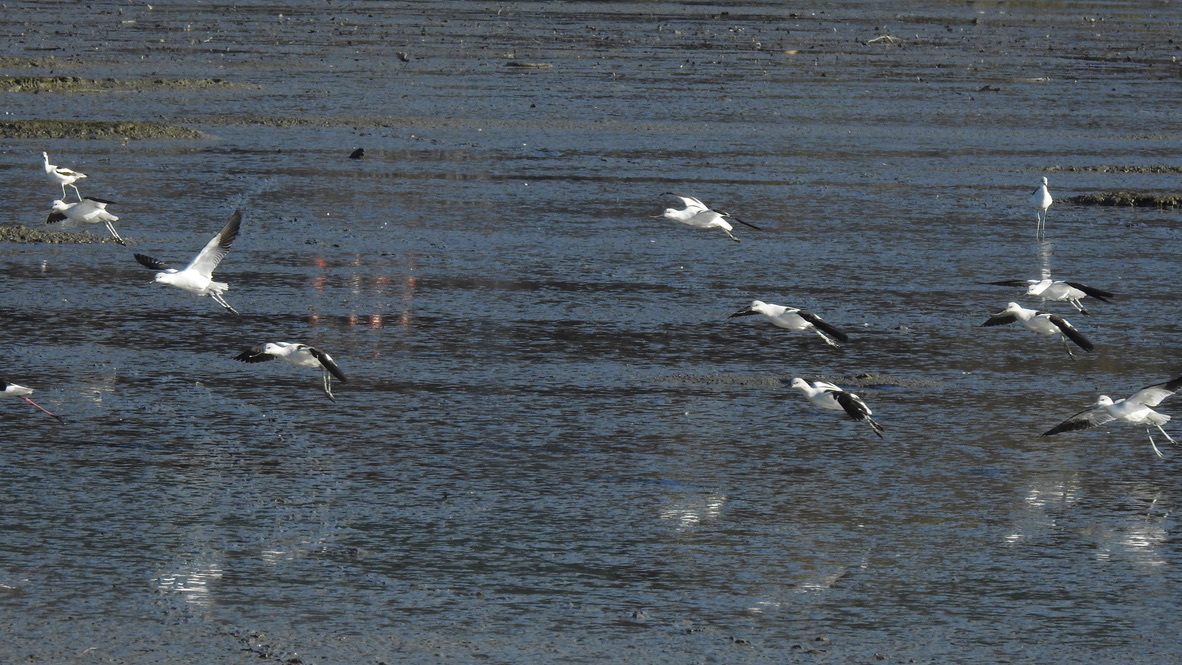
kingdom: Animalia
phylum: Chordata
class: Aves
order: Charadriiformes
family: Recurvirostridae
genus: Recurvirostra
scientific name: Recurvirostra americana
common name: American avocet
